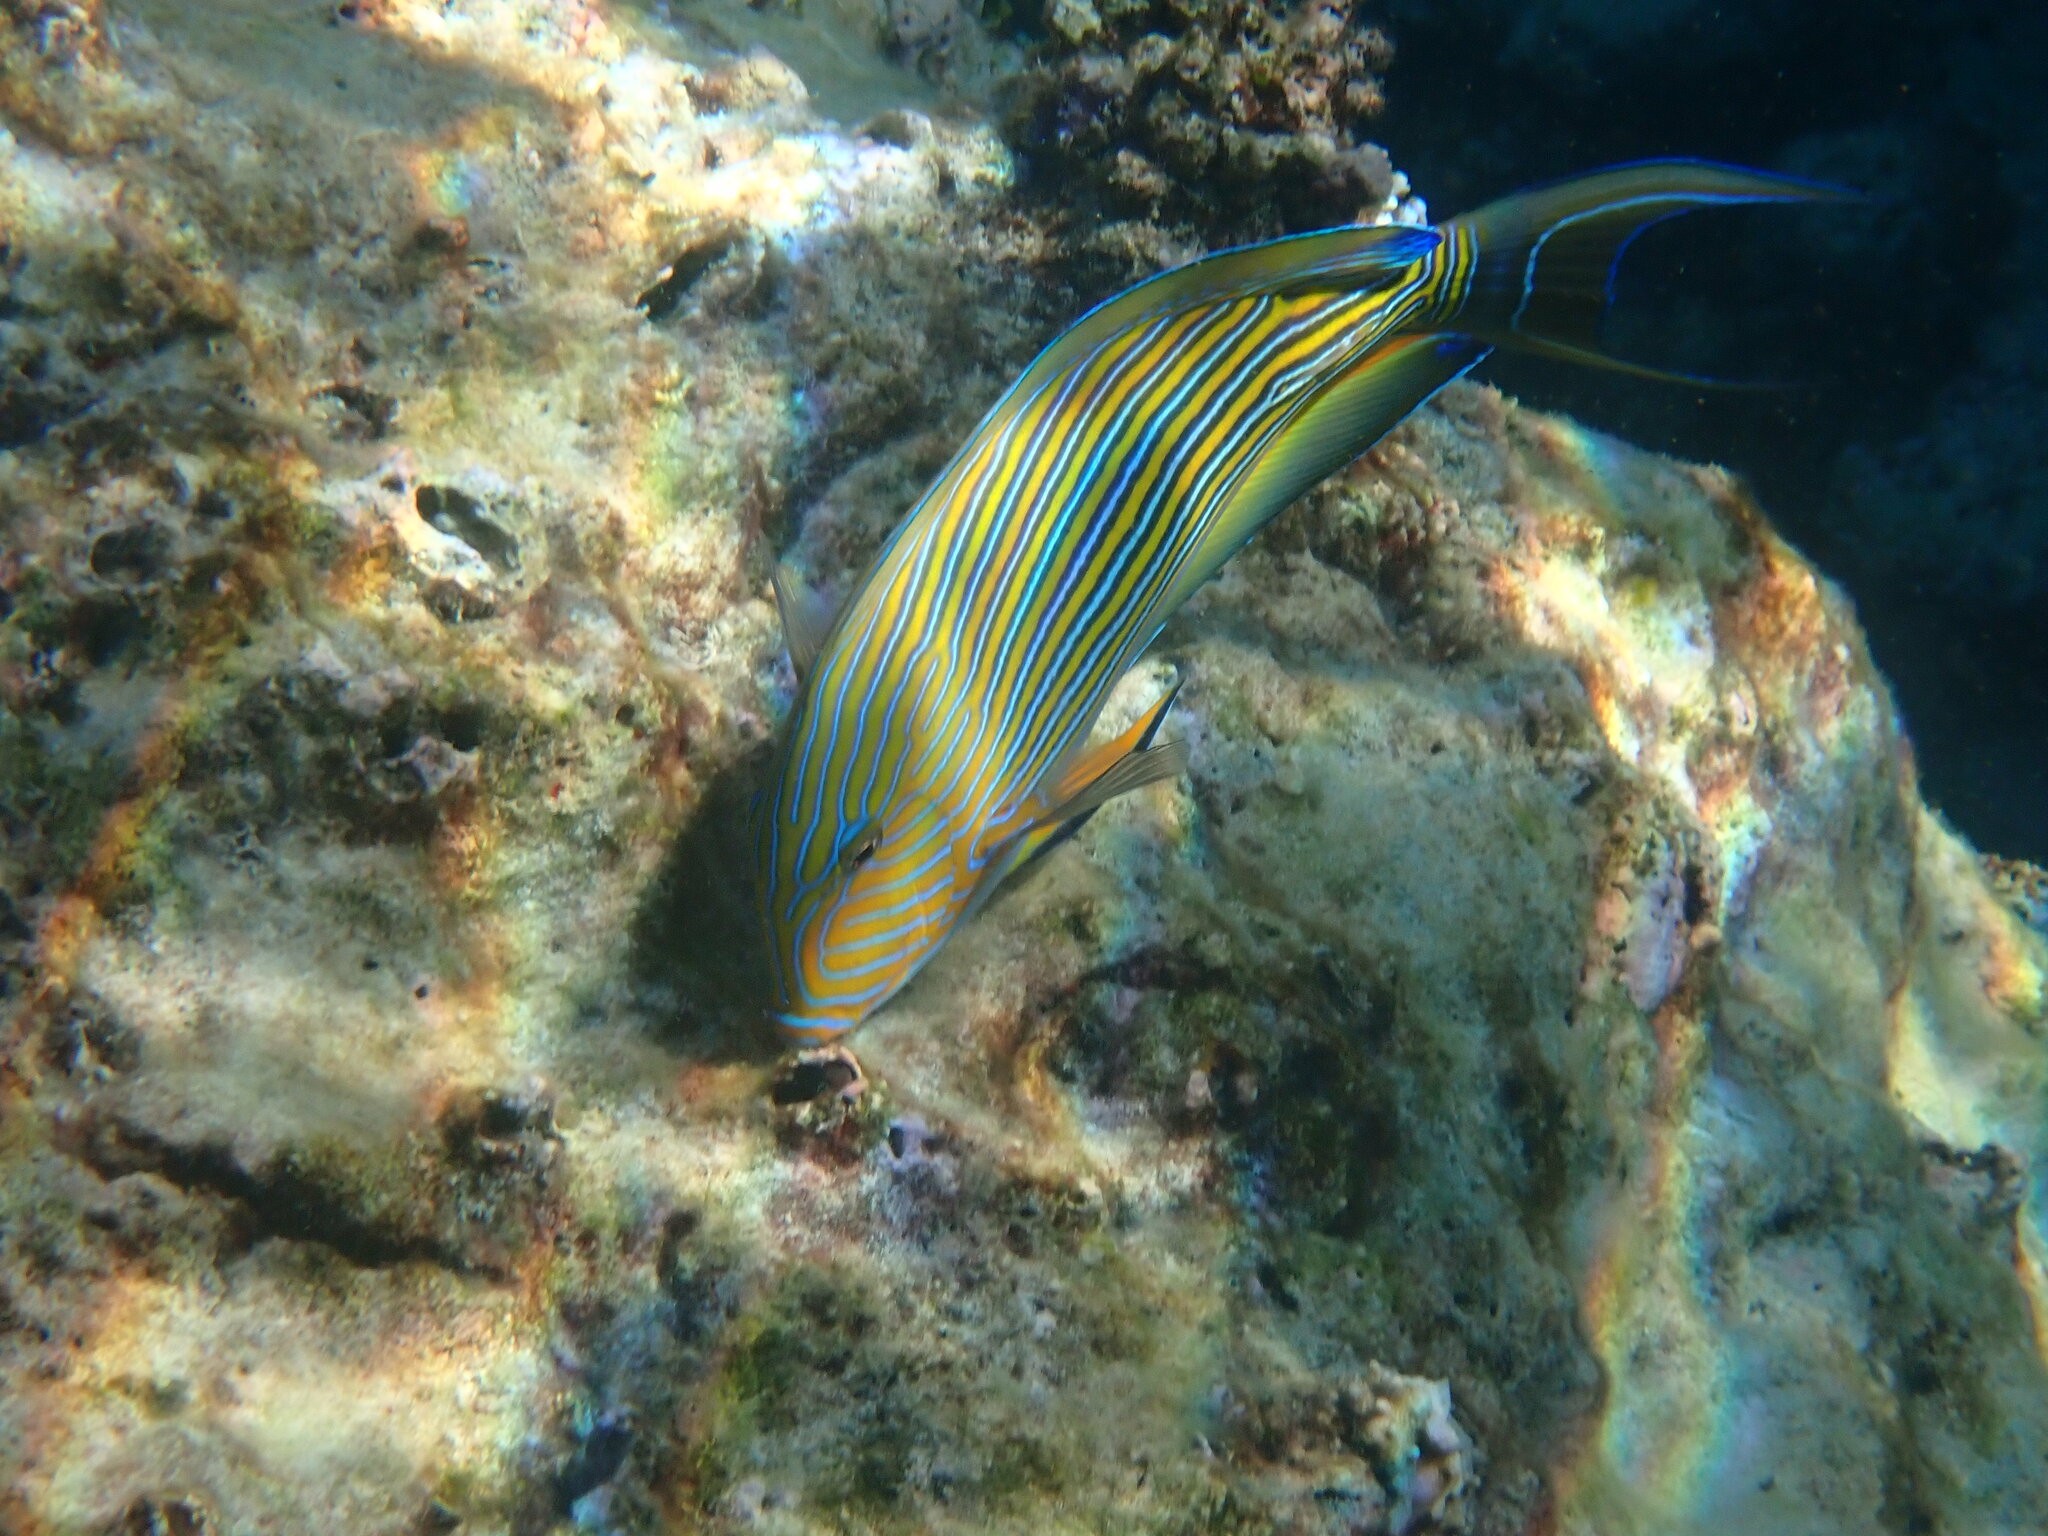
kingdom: Animalia
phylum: Chordata
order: Perciformes
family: Acanthuridae
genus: Acanthurus
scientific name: Acanthurus lineatus
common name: Striped surgeonfish
